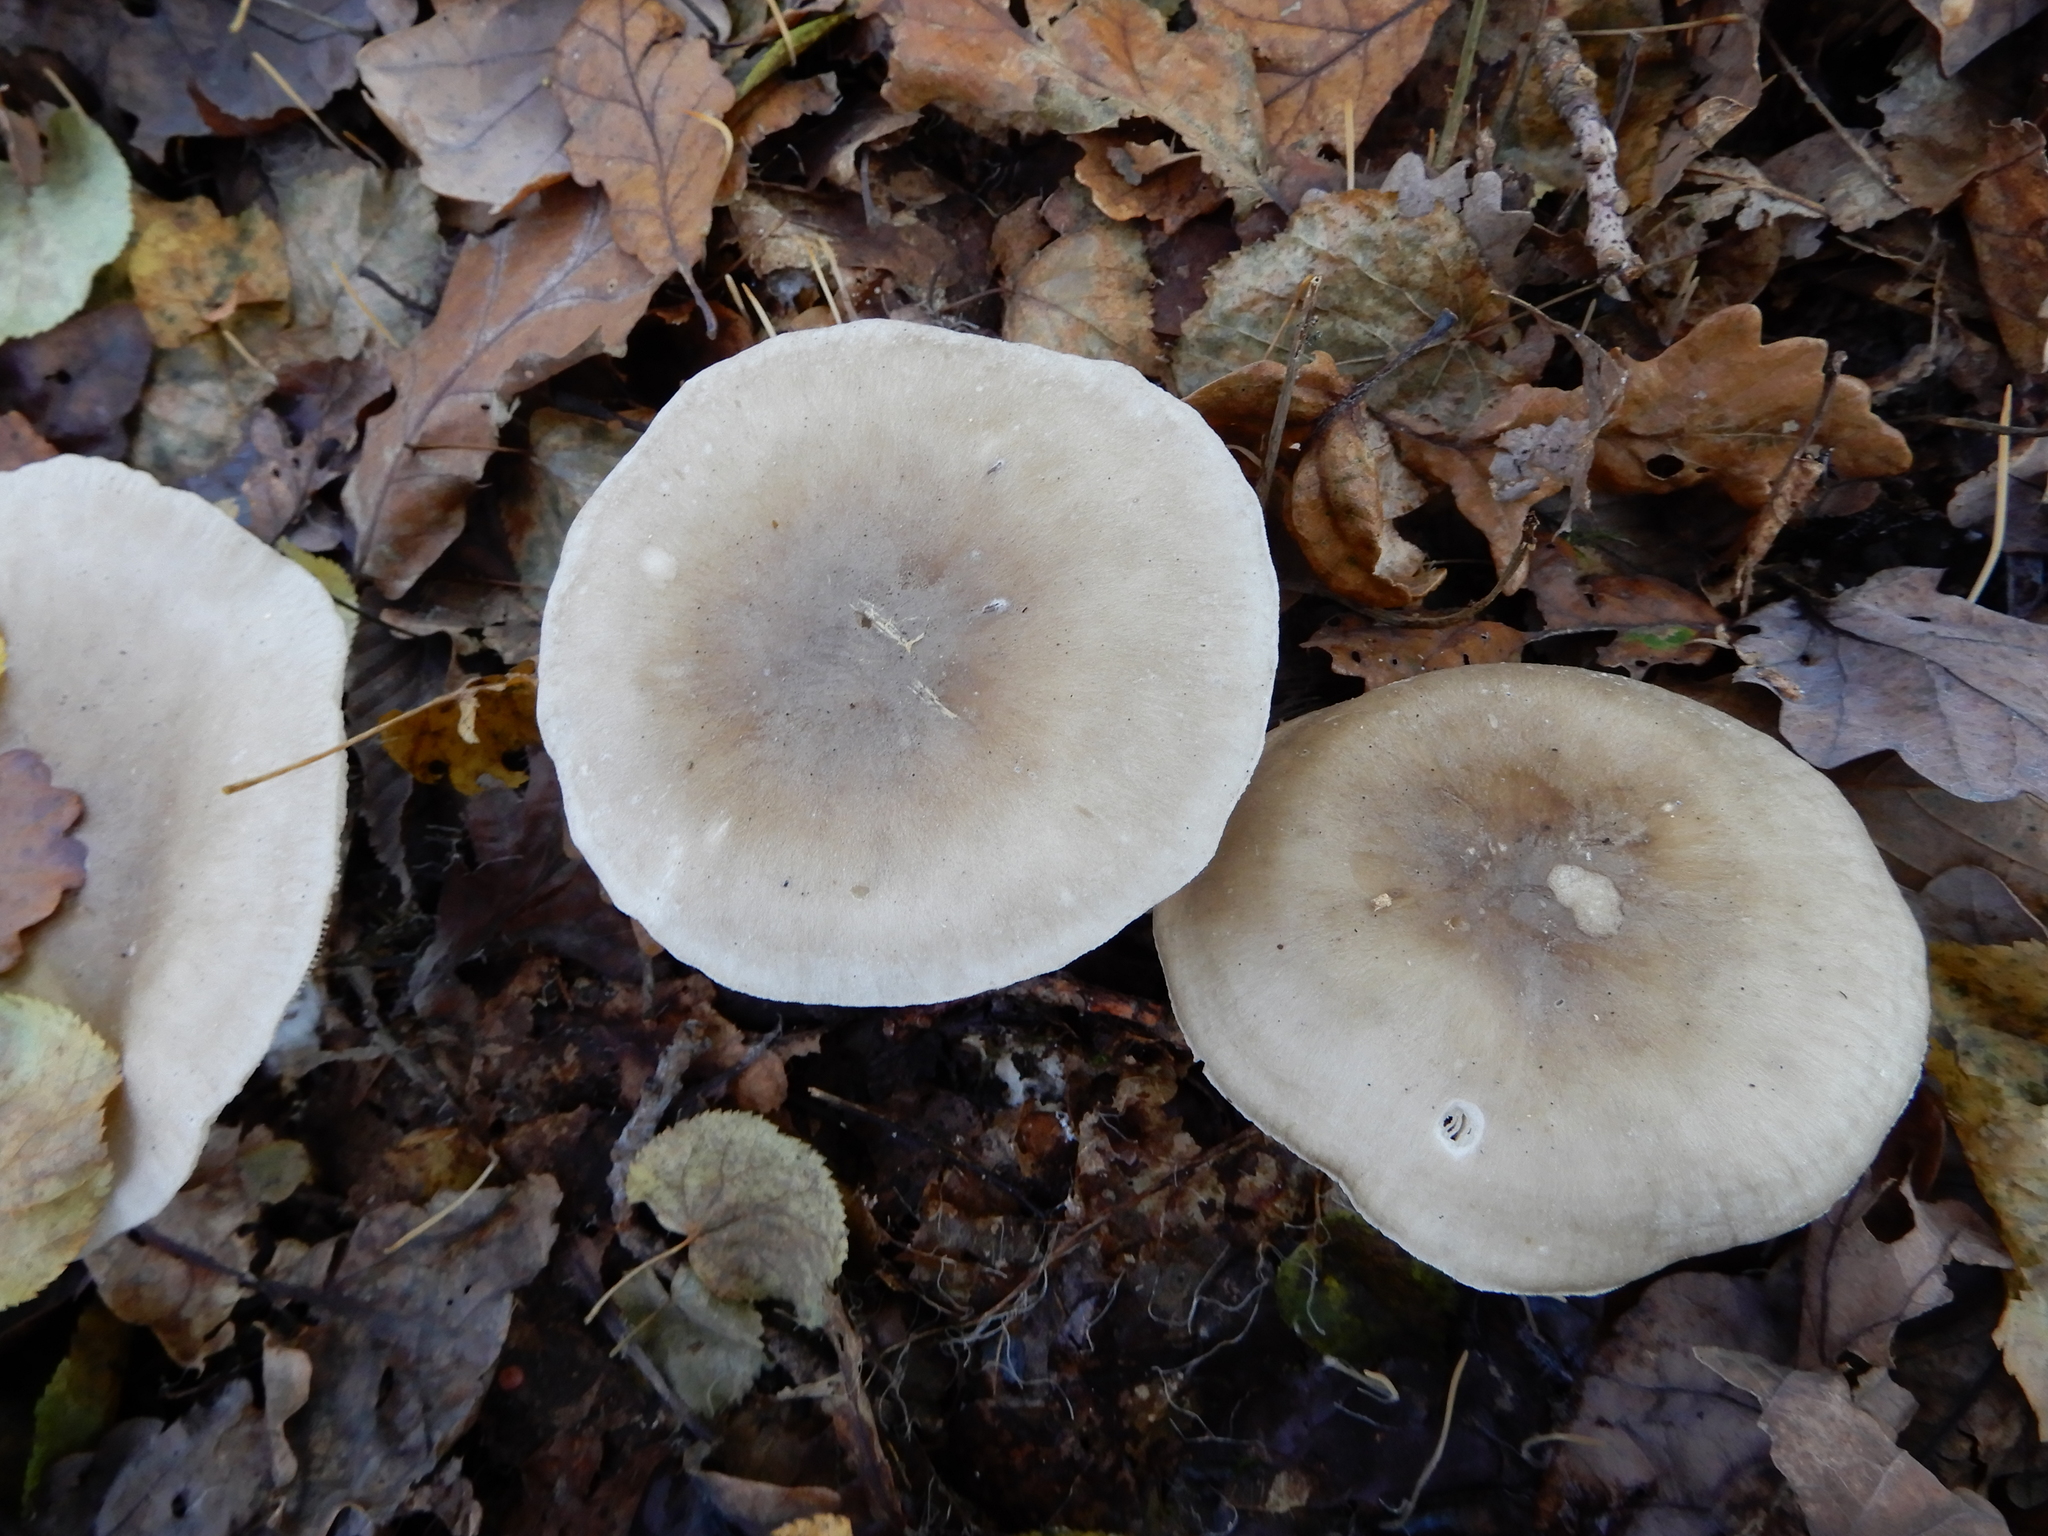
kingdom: Fungi
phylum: Basidiomycota
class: Agaricomycetes
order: Agaricales
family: Tricholomataceae
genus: Clitocybe
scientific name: Clitocybe nebularis
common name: Clouded agaric
